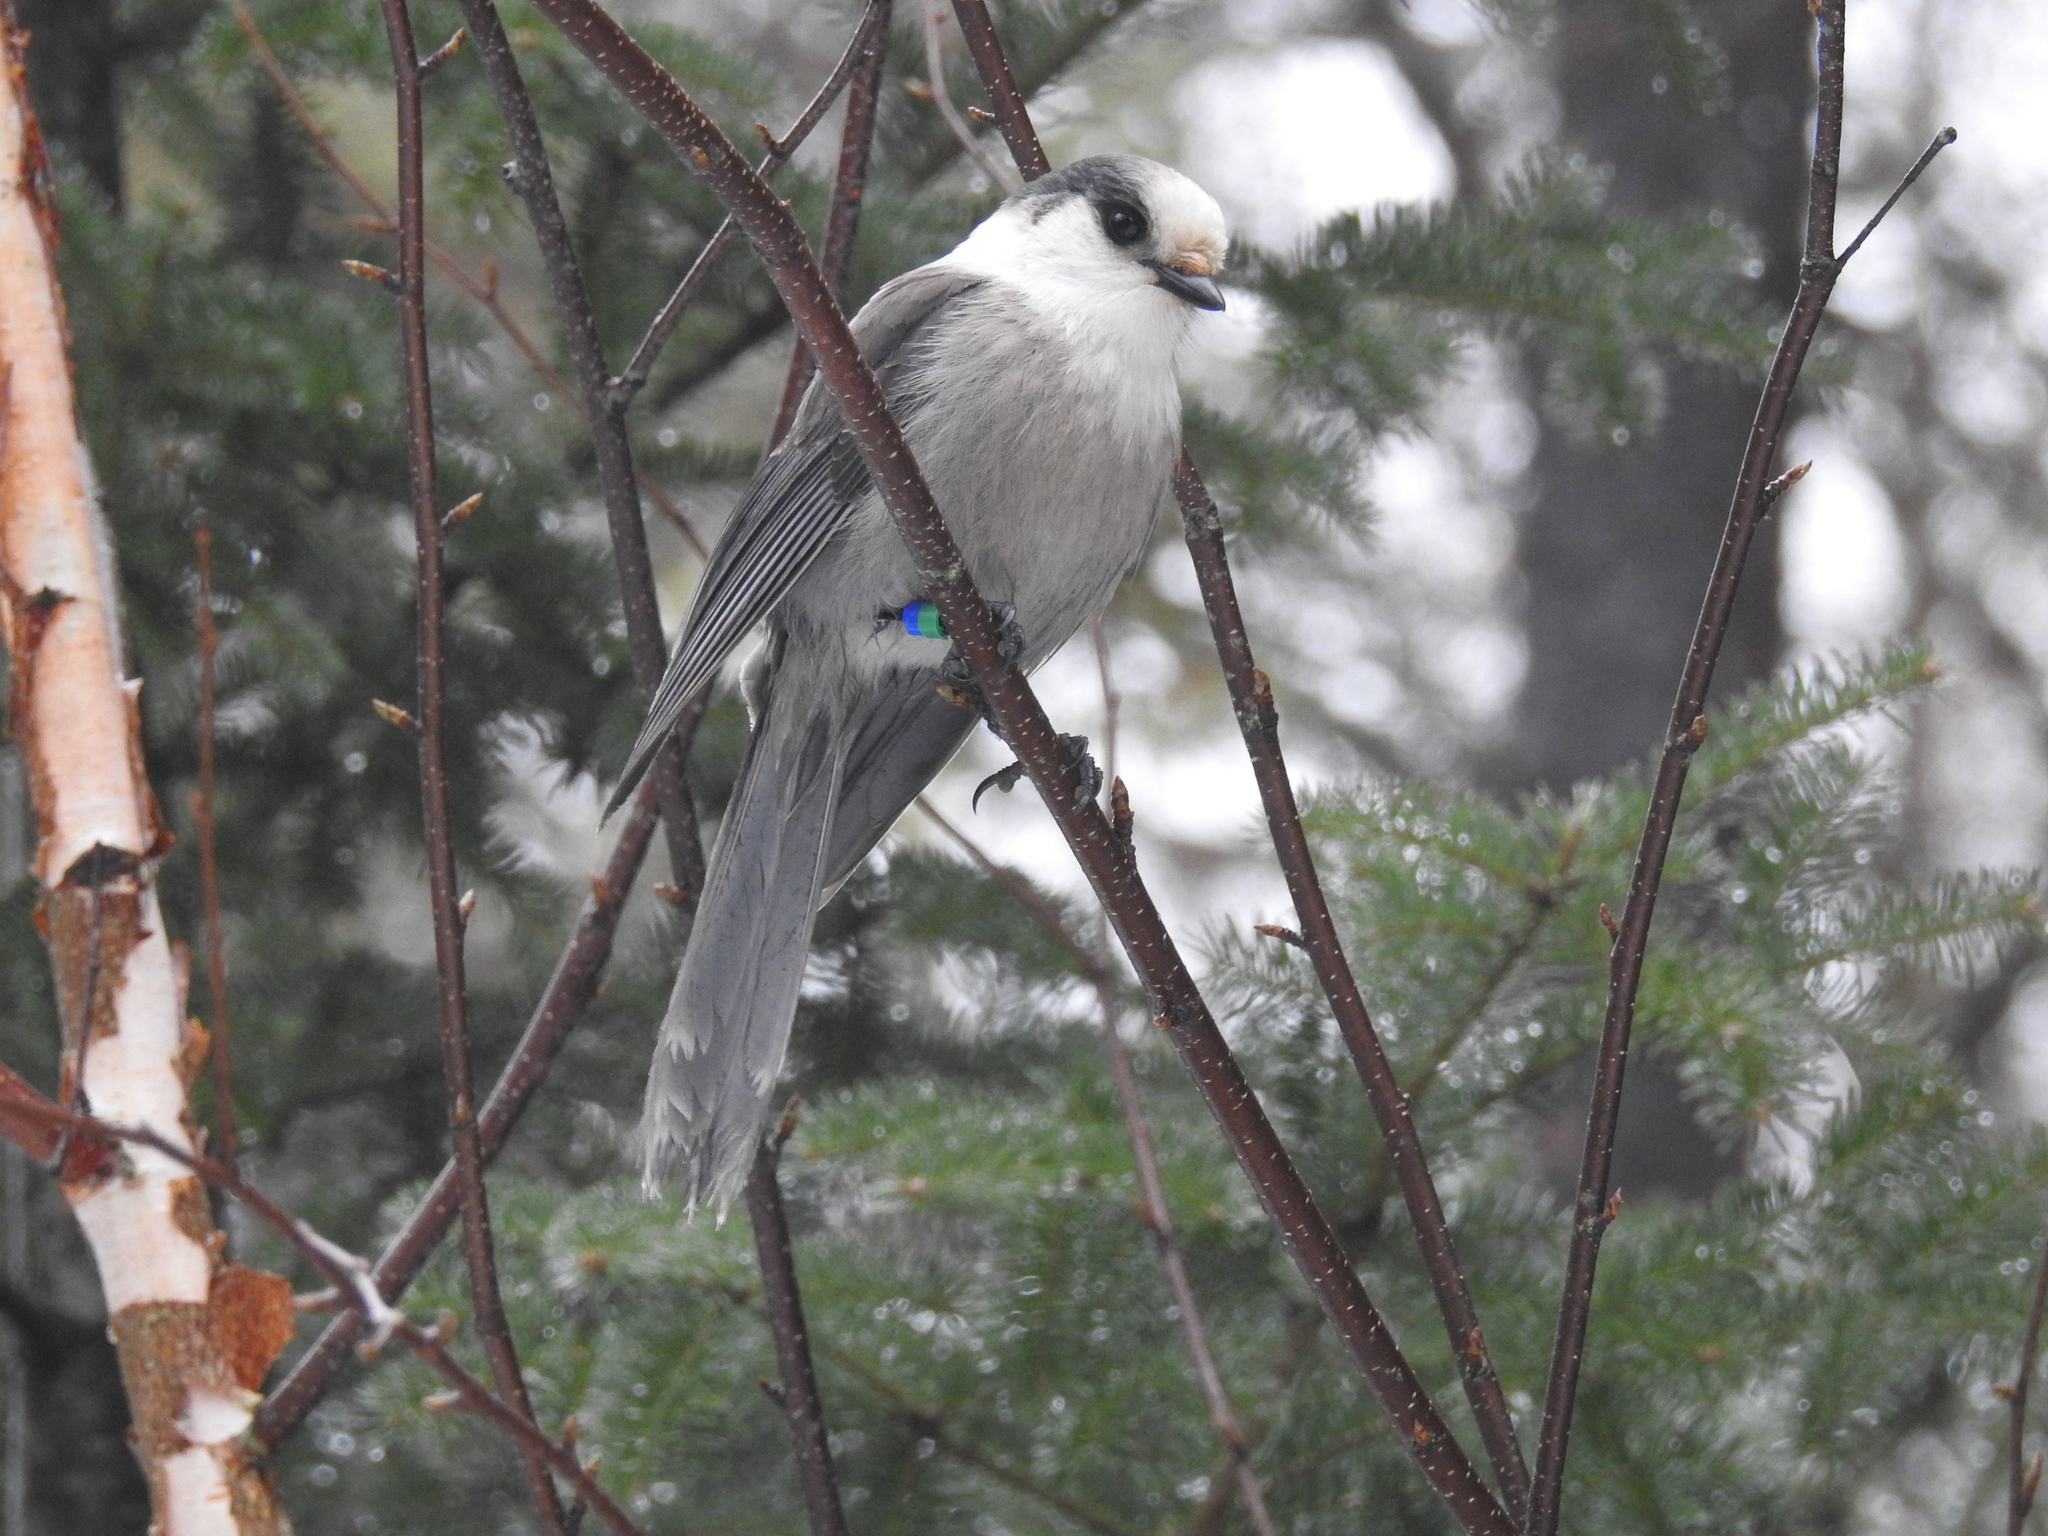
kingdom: Animalia
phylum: Chordata
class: Aves
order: Passeriformes
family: Corvidae
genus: Perisoreus
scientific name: Perisoreus canadensis
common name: Gray jay
